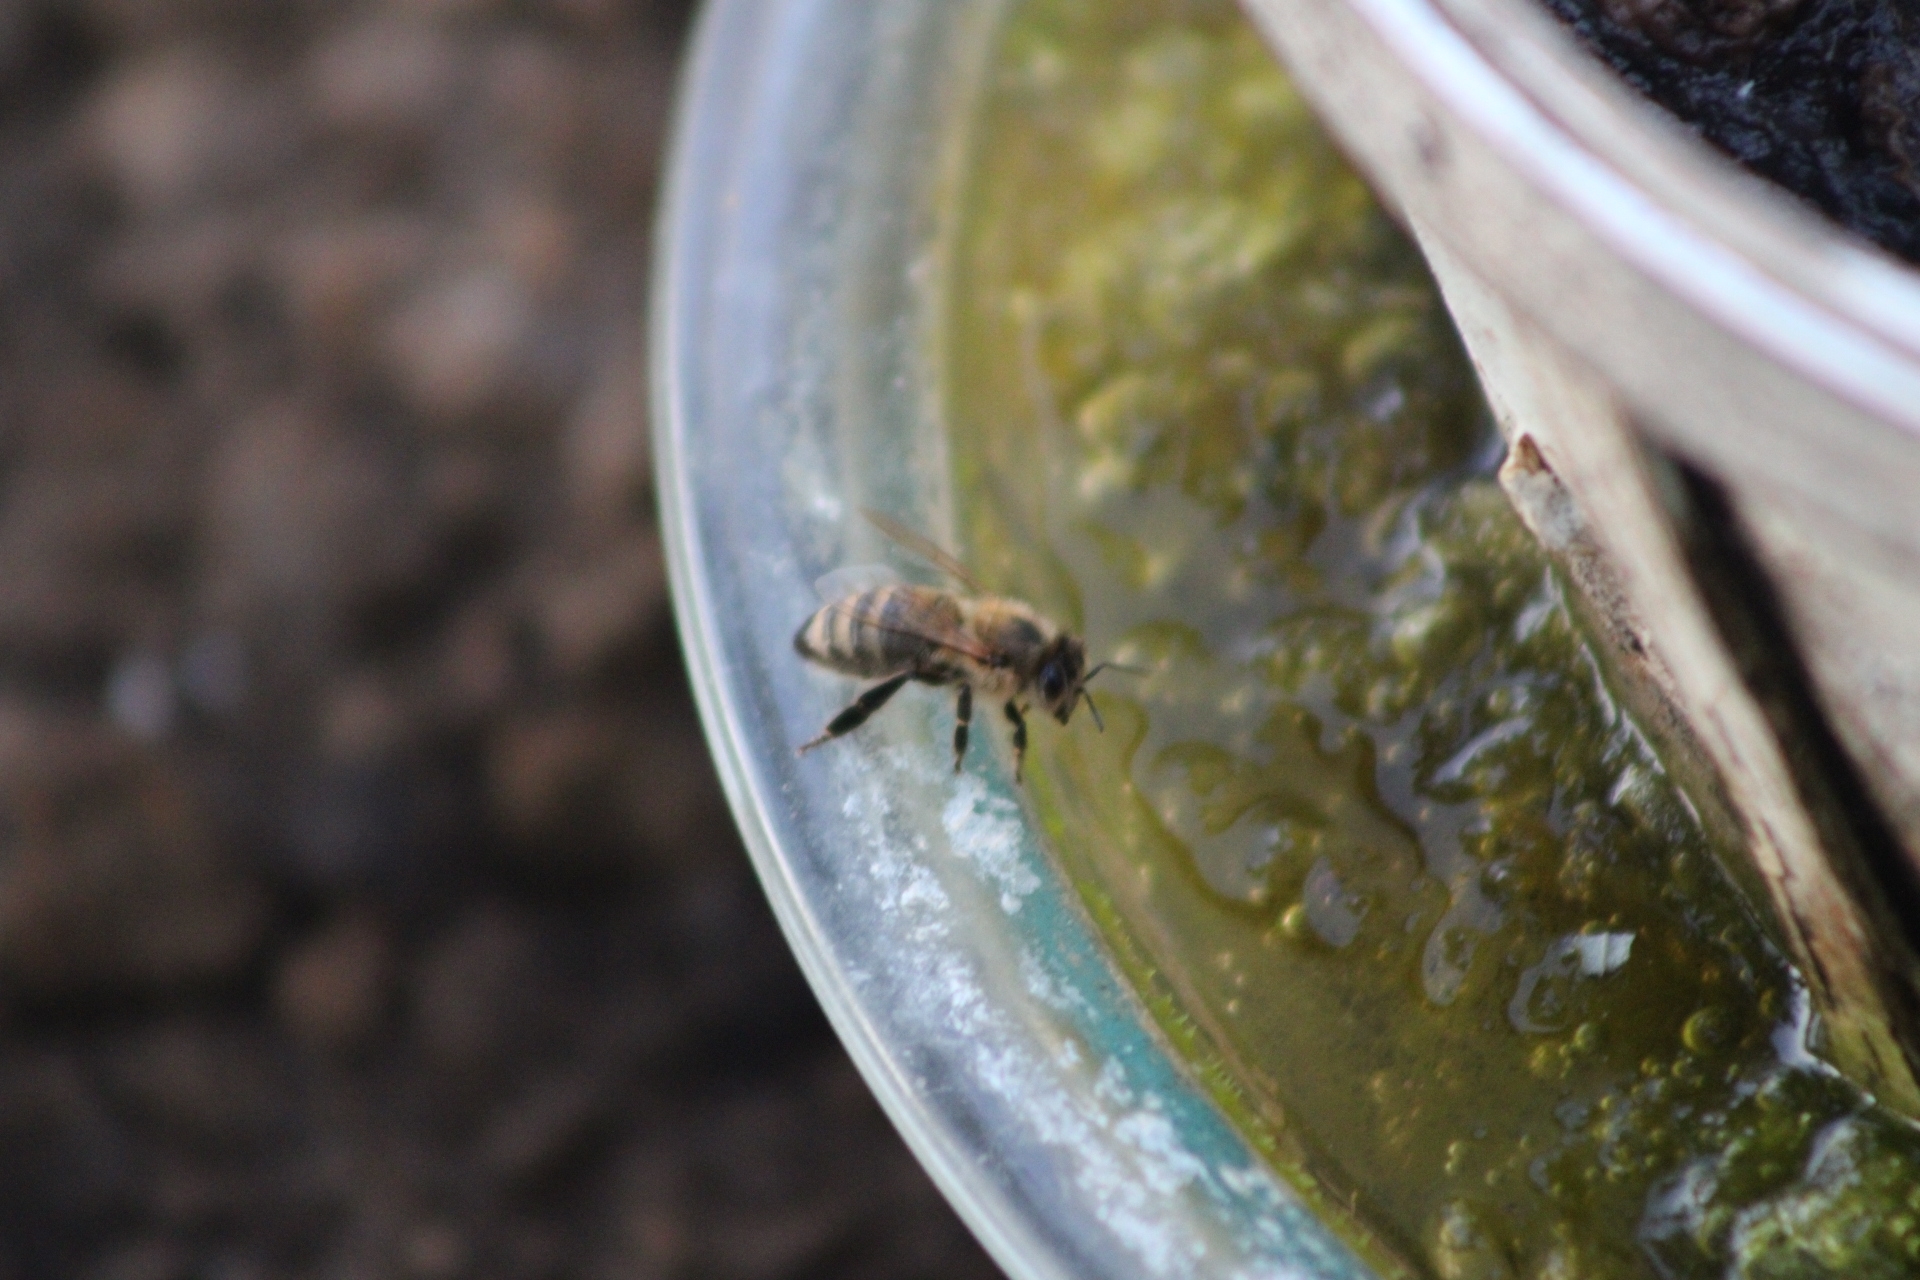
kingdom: Animalia
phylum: Arthropoda
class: Insecta
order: Hymenoptera
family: Apidae
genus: Apis
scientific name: Apis mellifera
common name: Honey bee
